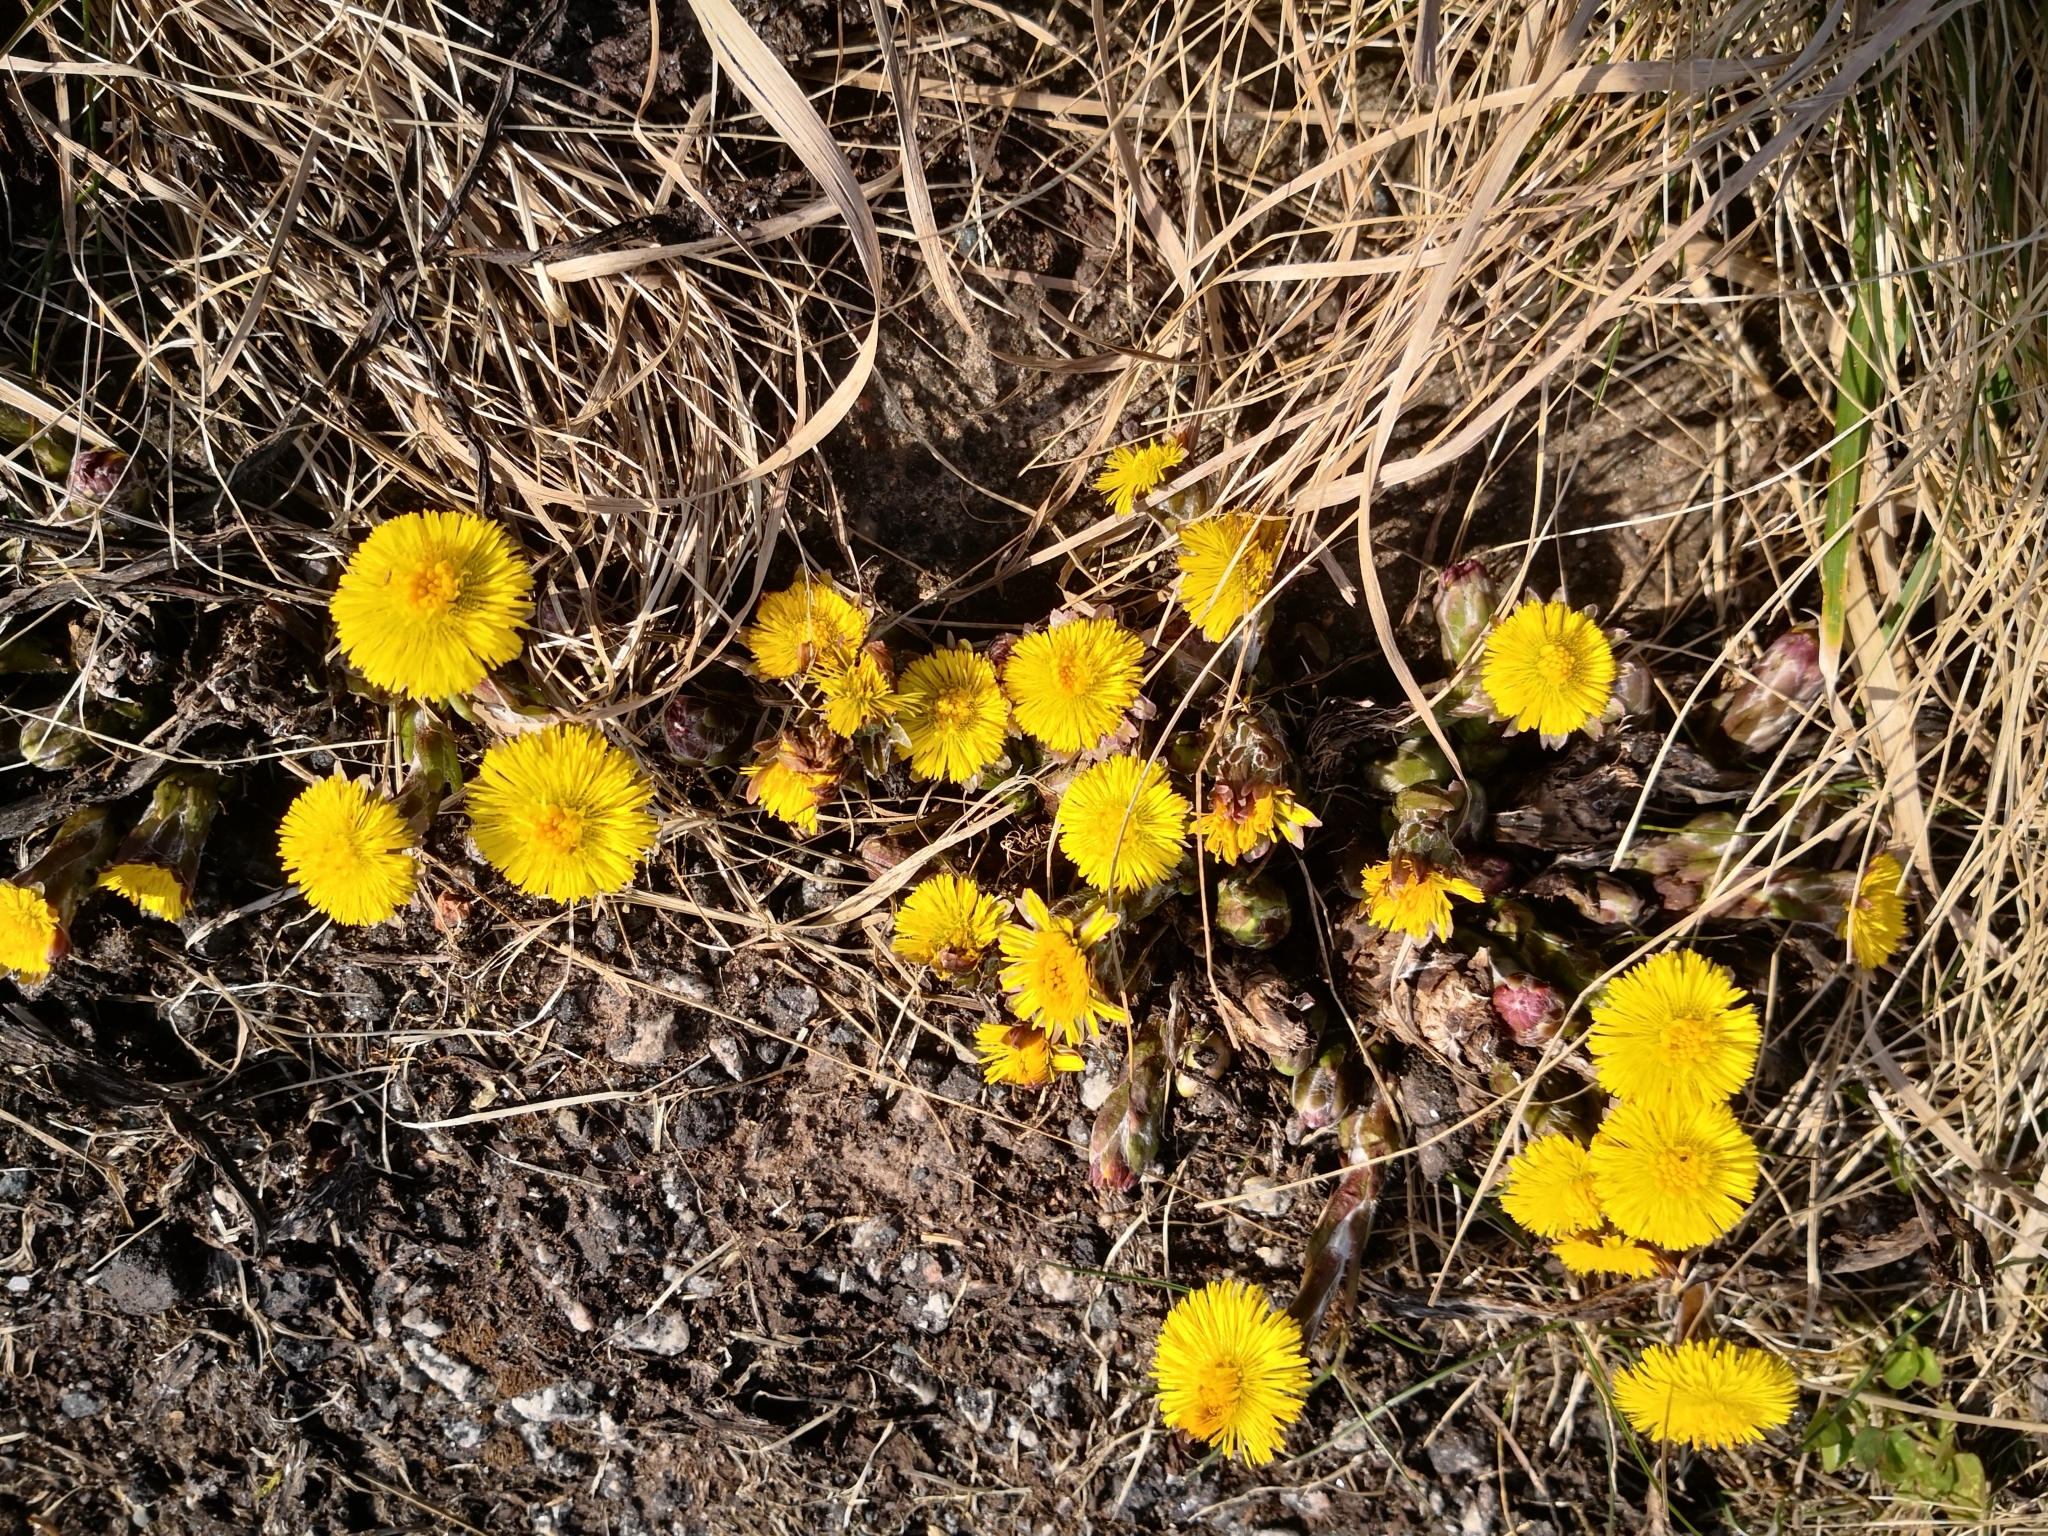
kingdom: Plantae
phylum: Tracheophyta
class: Magnoliopsida
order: Asterales
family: Asteraceae
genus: Tussilago
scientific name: Tussilago farfara
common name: Coltsfoot
